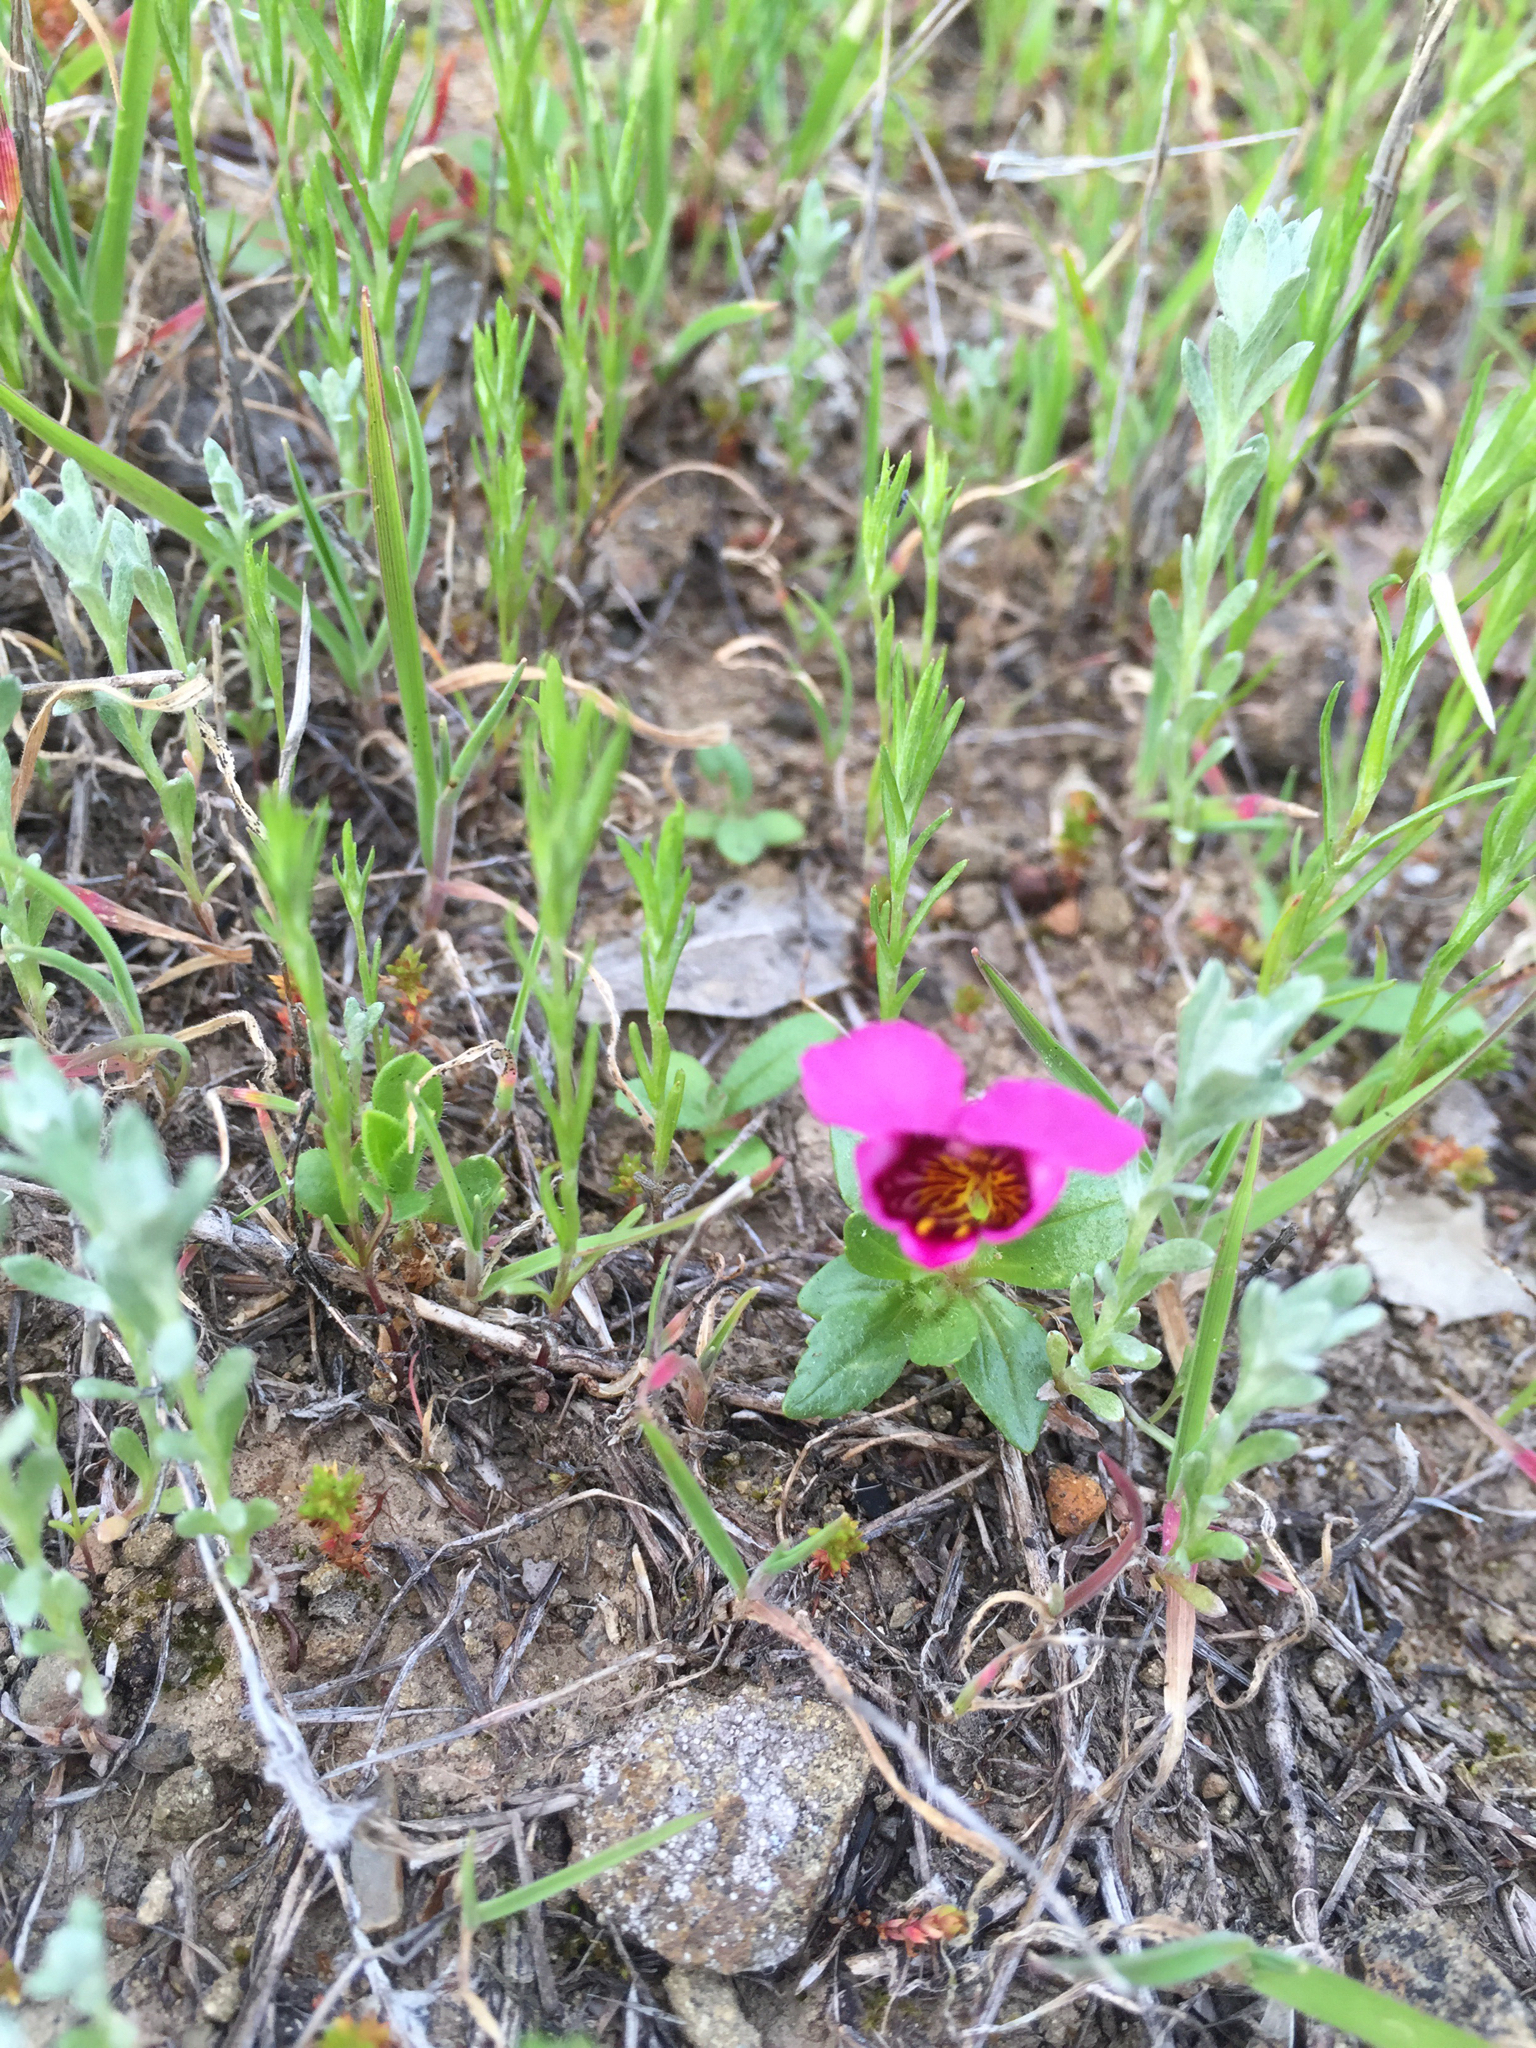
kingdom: Plantae
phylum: Tracheophyta
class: Magnoliopsida
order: Lamiales
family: Phrymaceae
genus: Diplacus
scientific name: Diplacus douglasii
